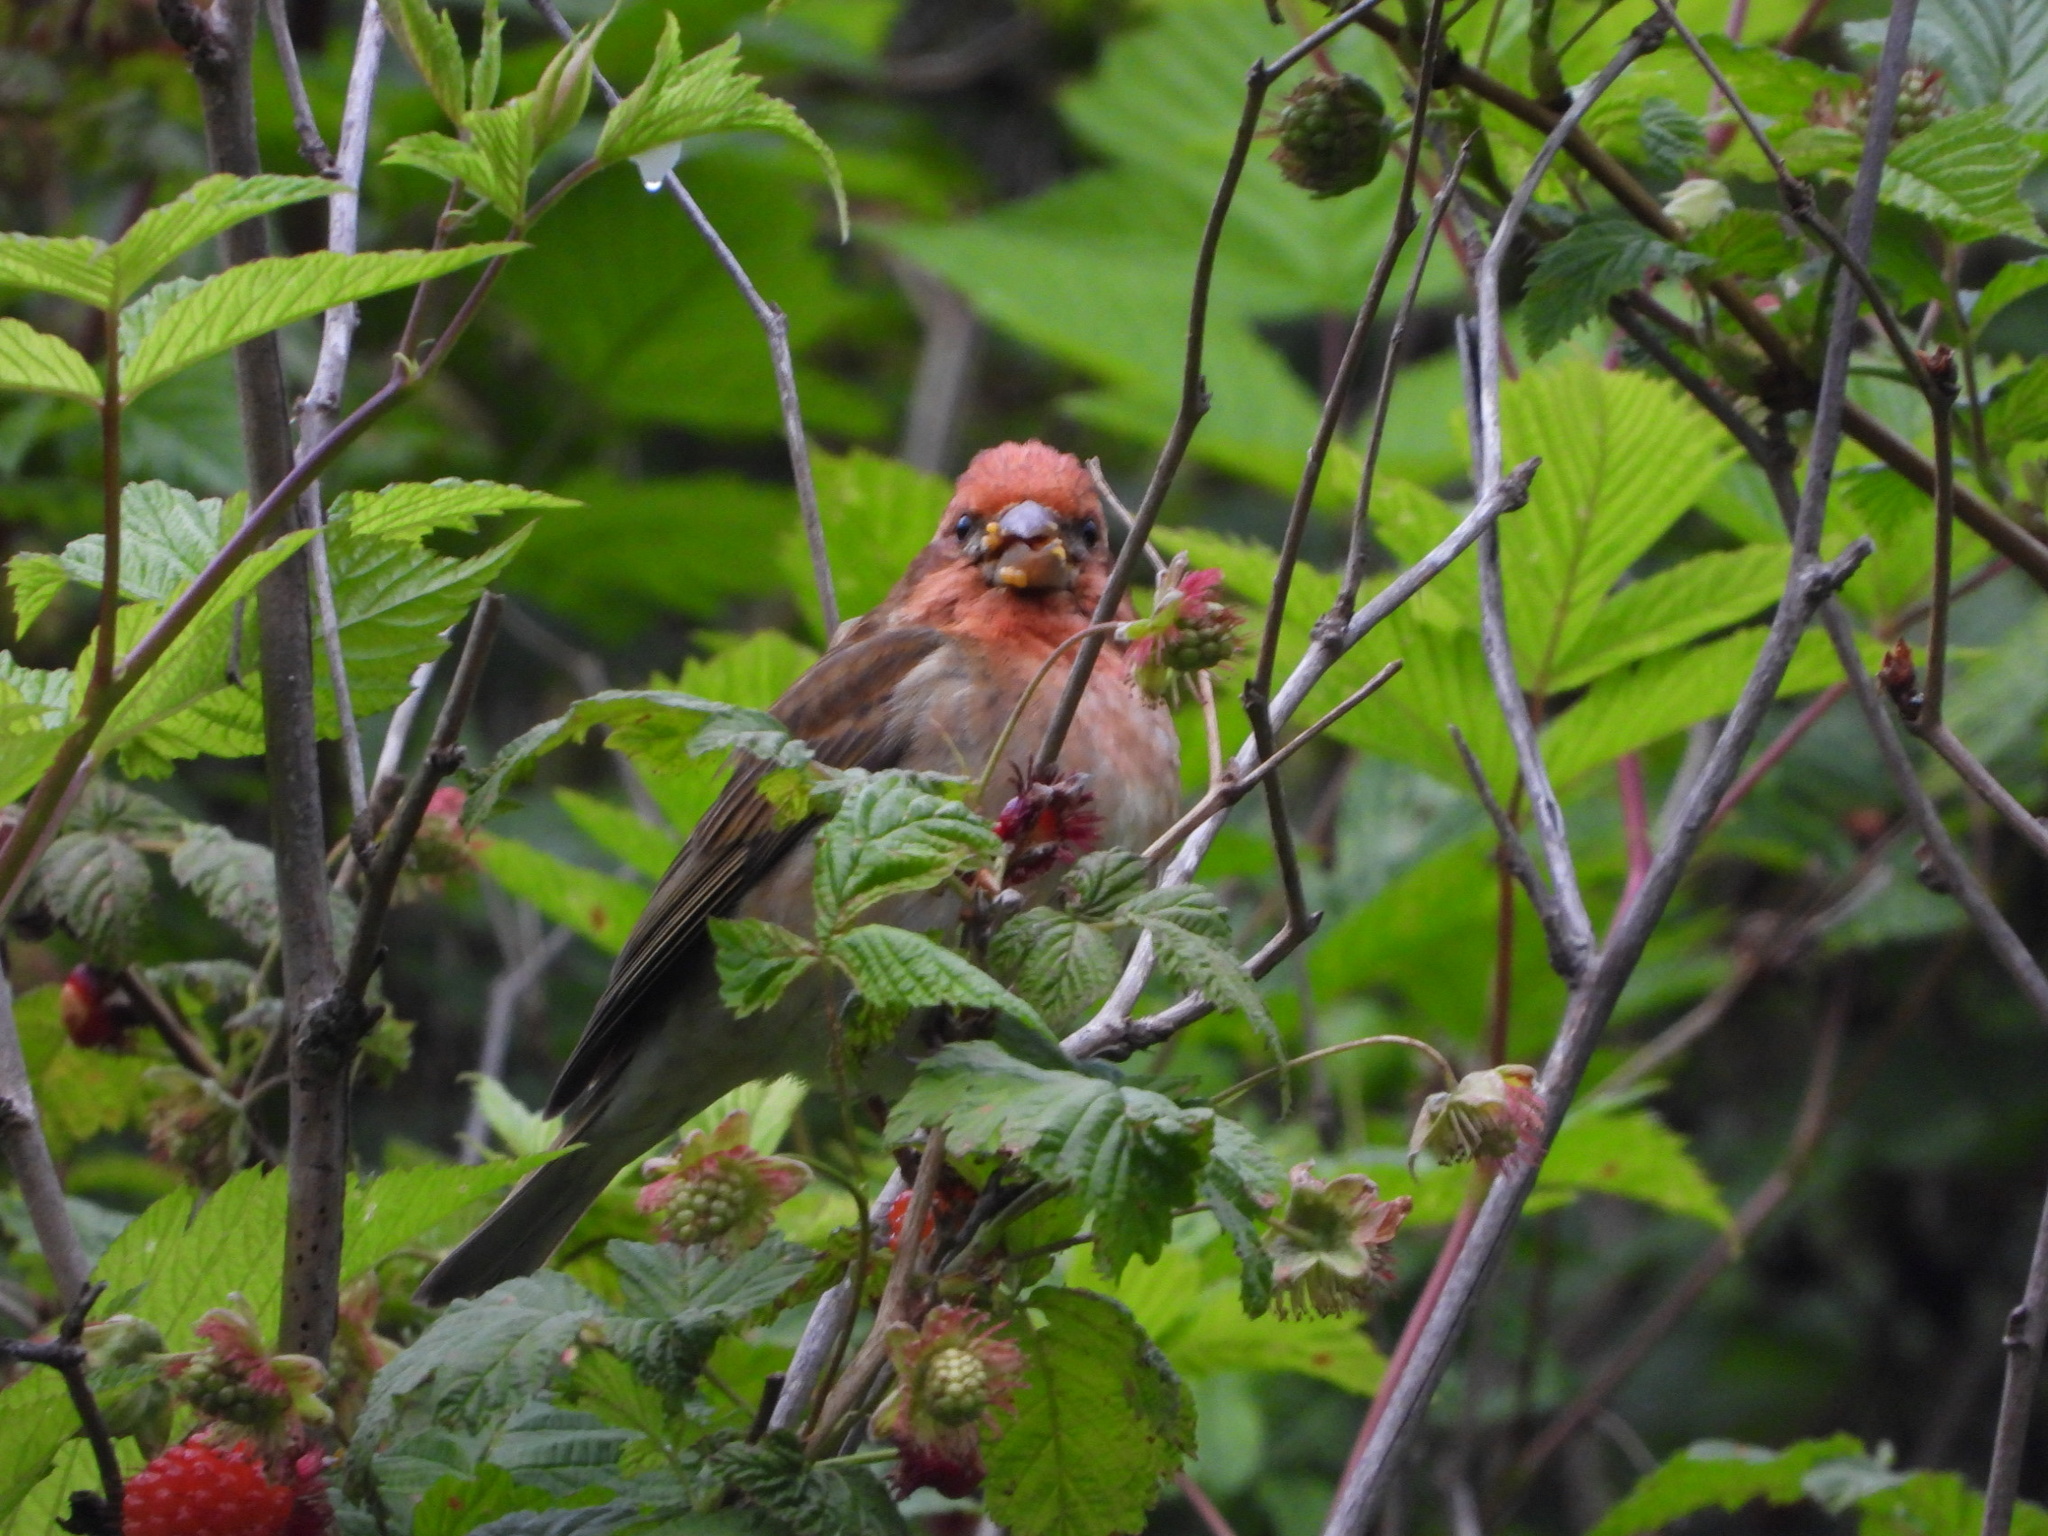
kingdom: Animalia
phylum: Chordata
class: Aves
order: Passeriformes
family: Fringillidae
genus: Haemorhous
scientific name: Haemorhous purpureus
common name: Purple finch
